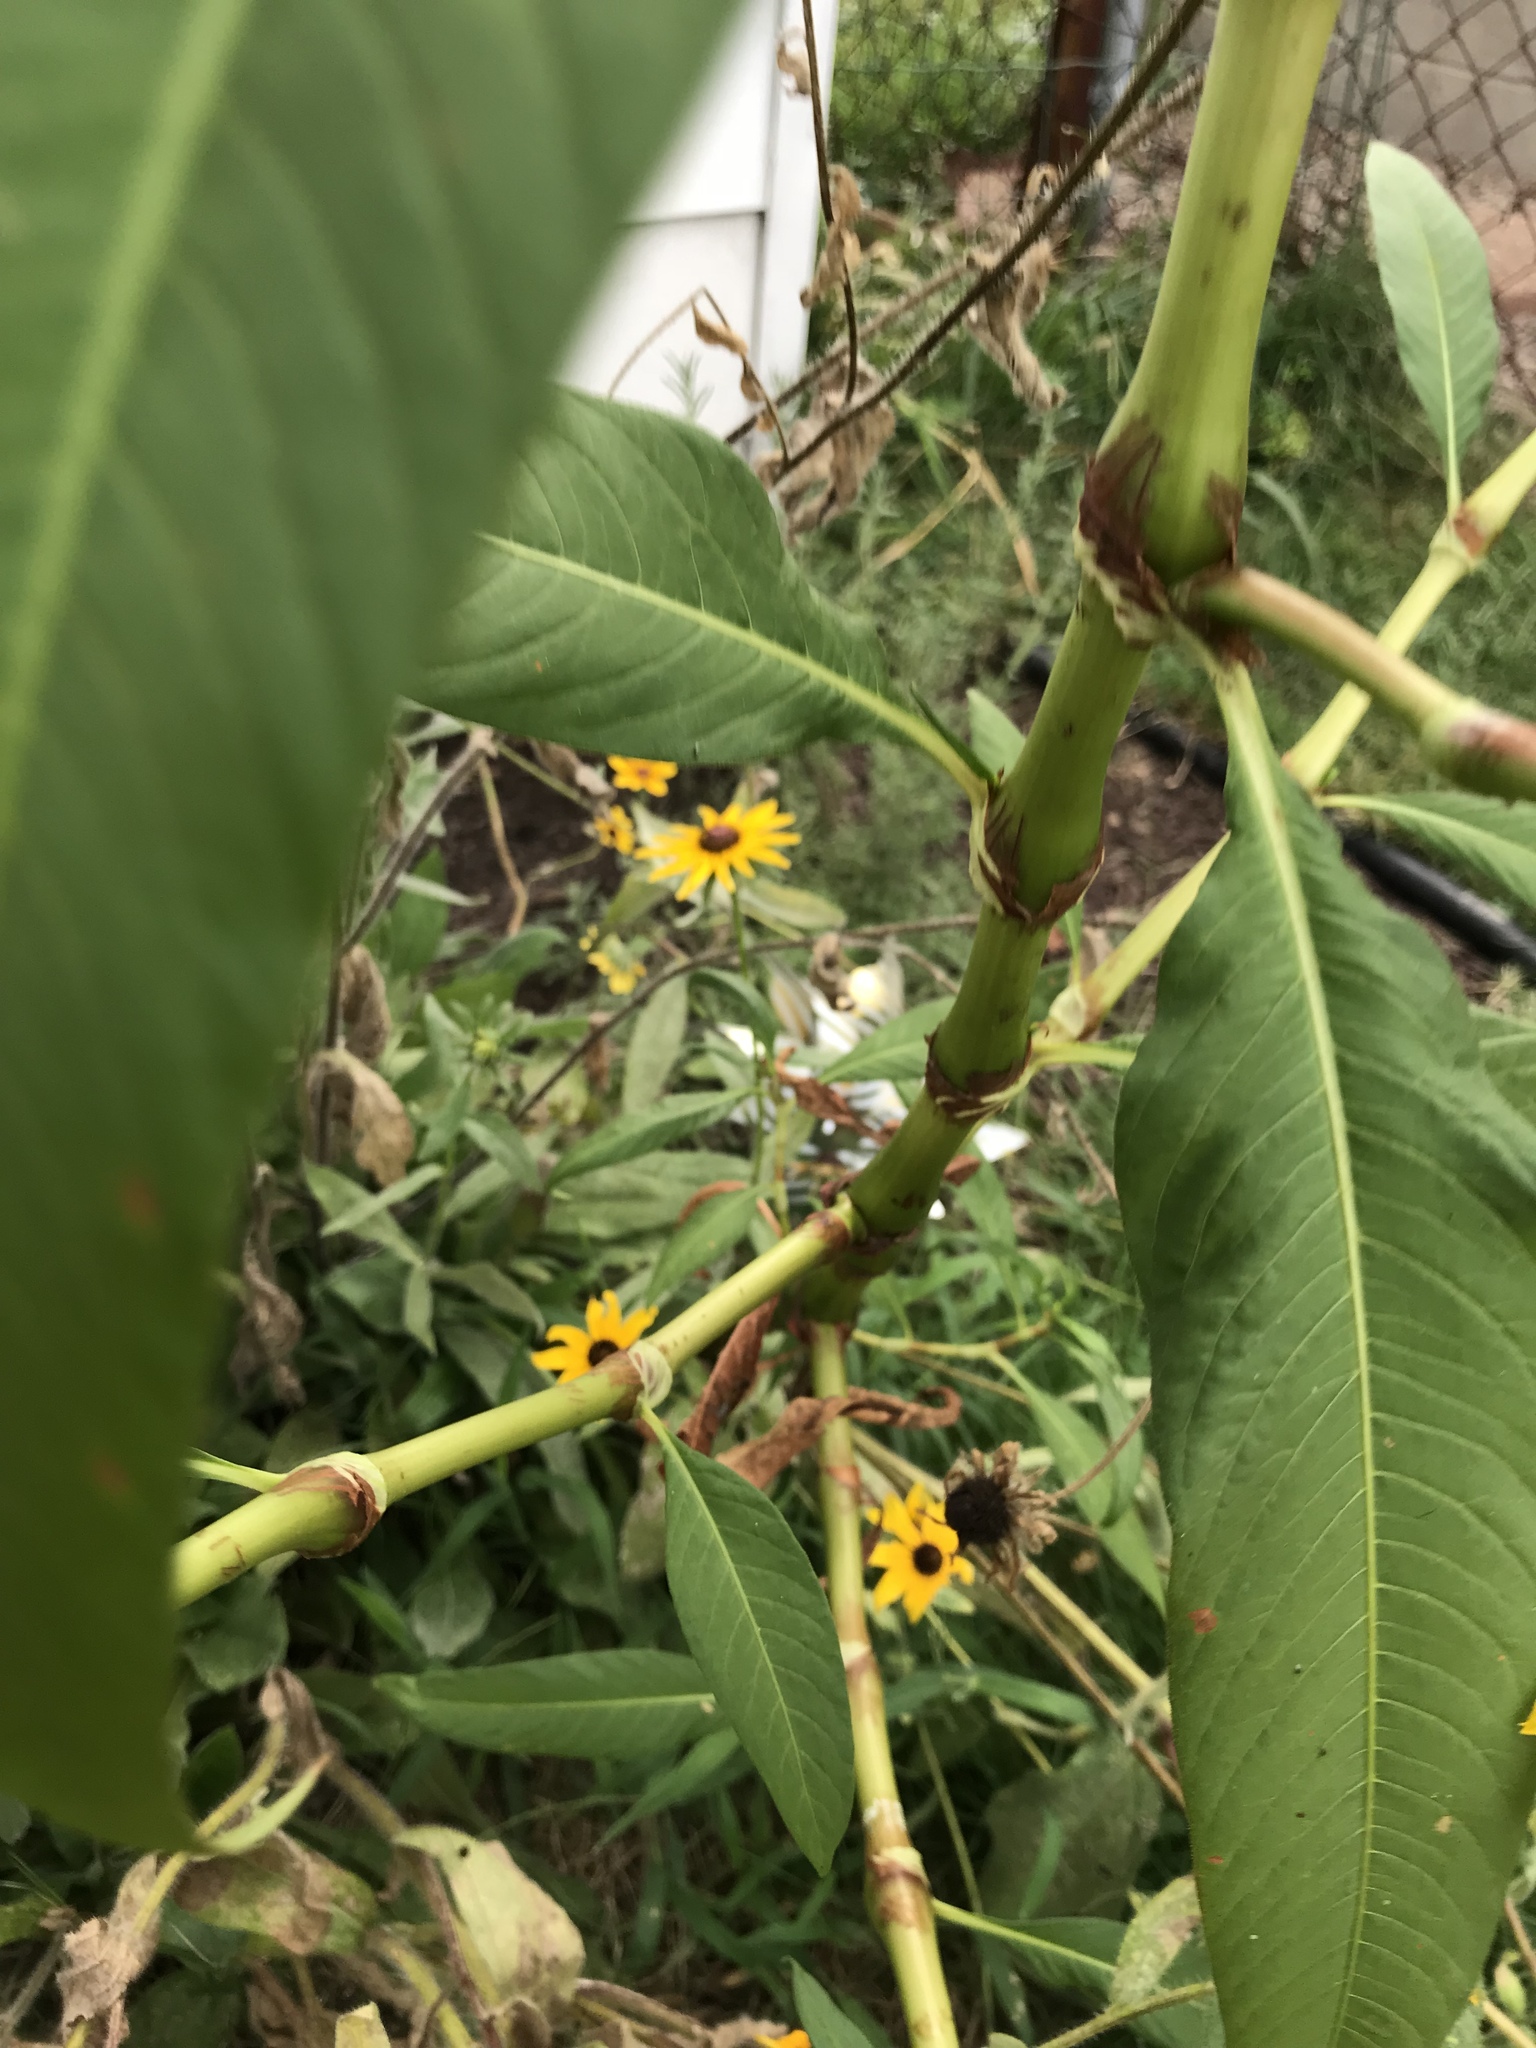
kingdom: Plantae
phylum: Tracheophyta
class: Magnoliopsida
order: Caryophyllales
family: Polygonaceae
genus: Persicaria
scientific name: Persicaria lapathifolia
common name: Curlytop knotweed
